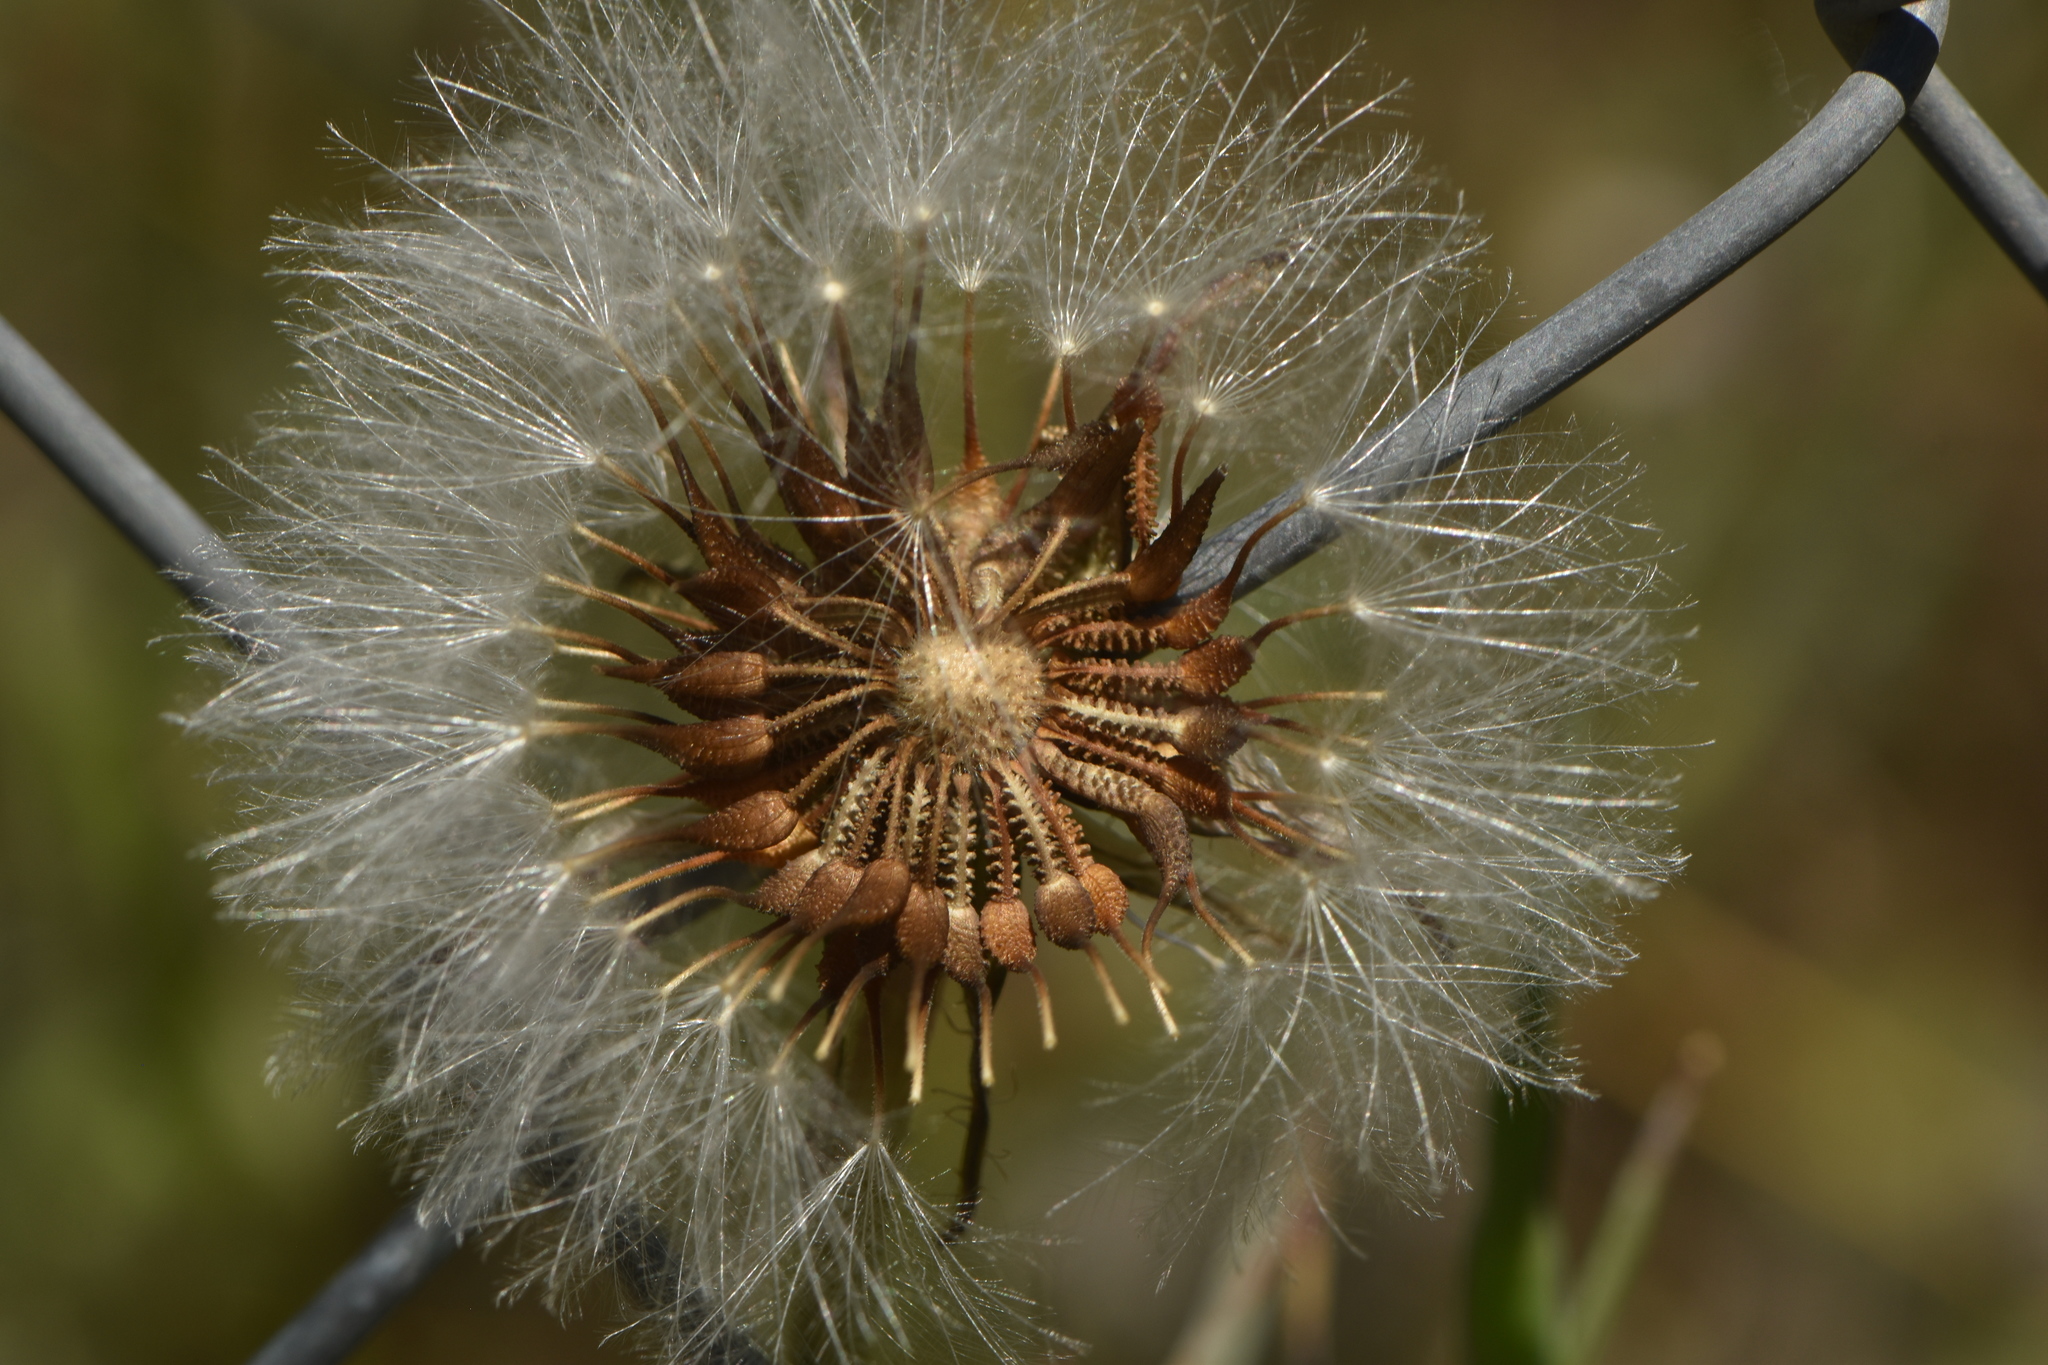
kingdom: Plantae
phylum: Tracheophyta
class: Magnoliopsida
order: Asterales
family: Asteraceae
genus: Urospermum
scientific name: Urospermum picroides
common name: False hawkbit
